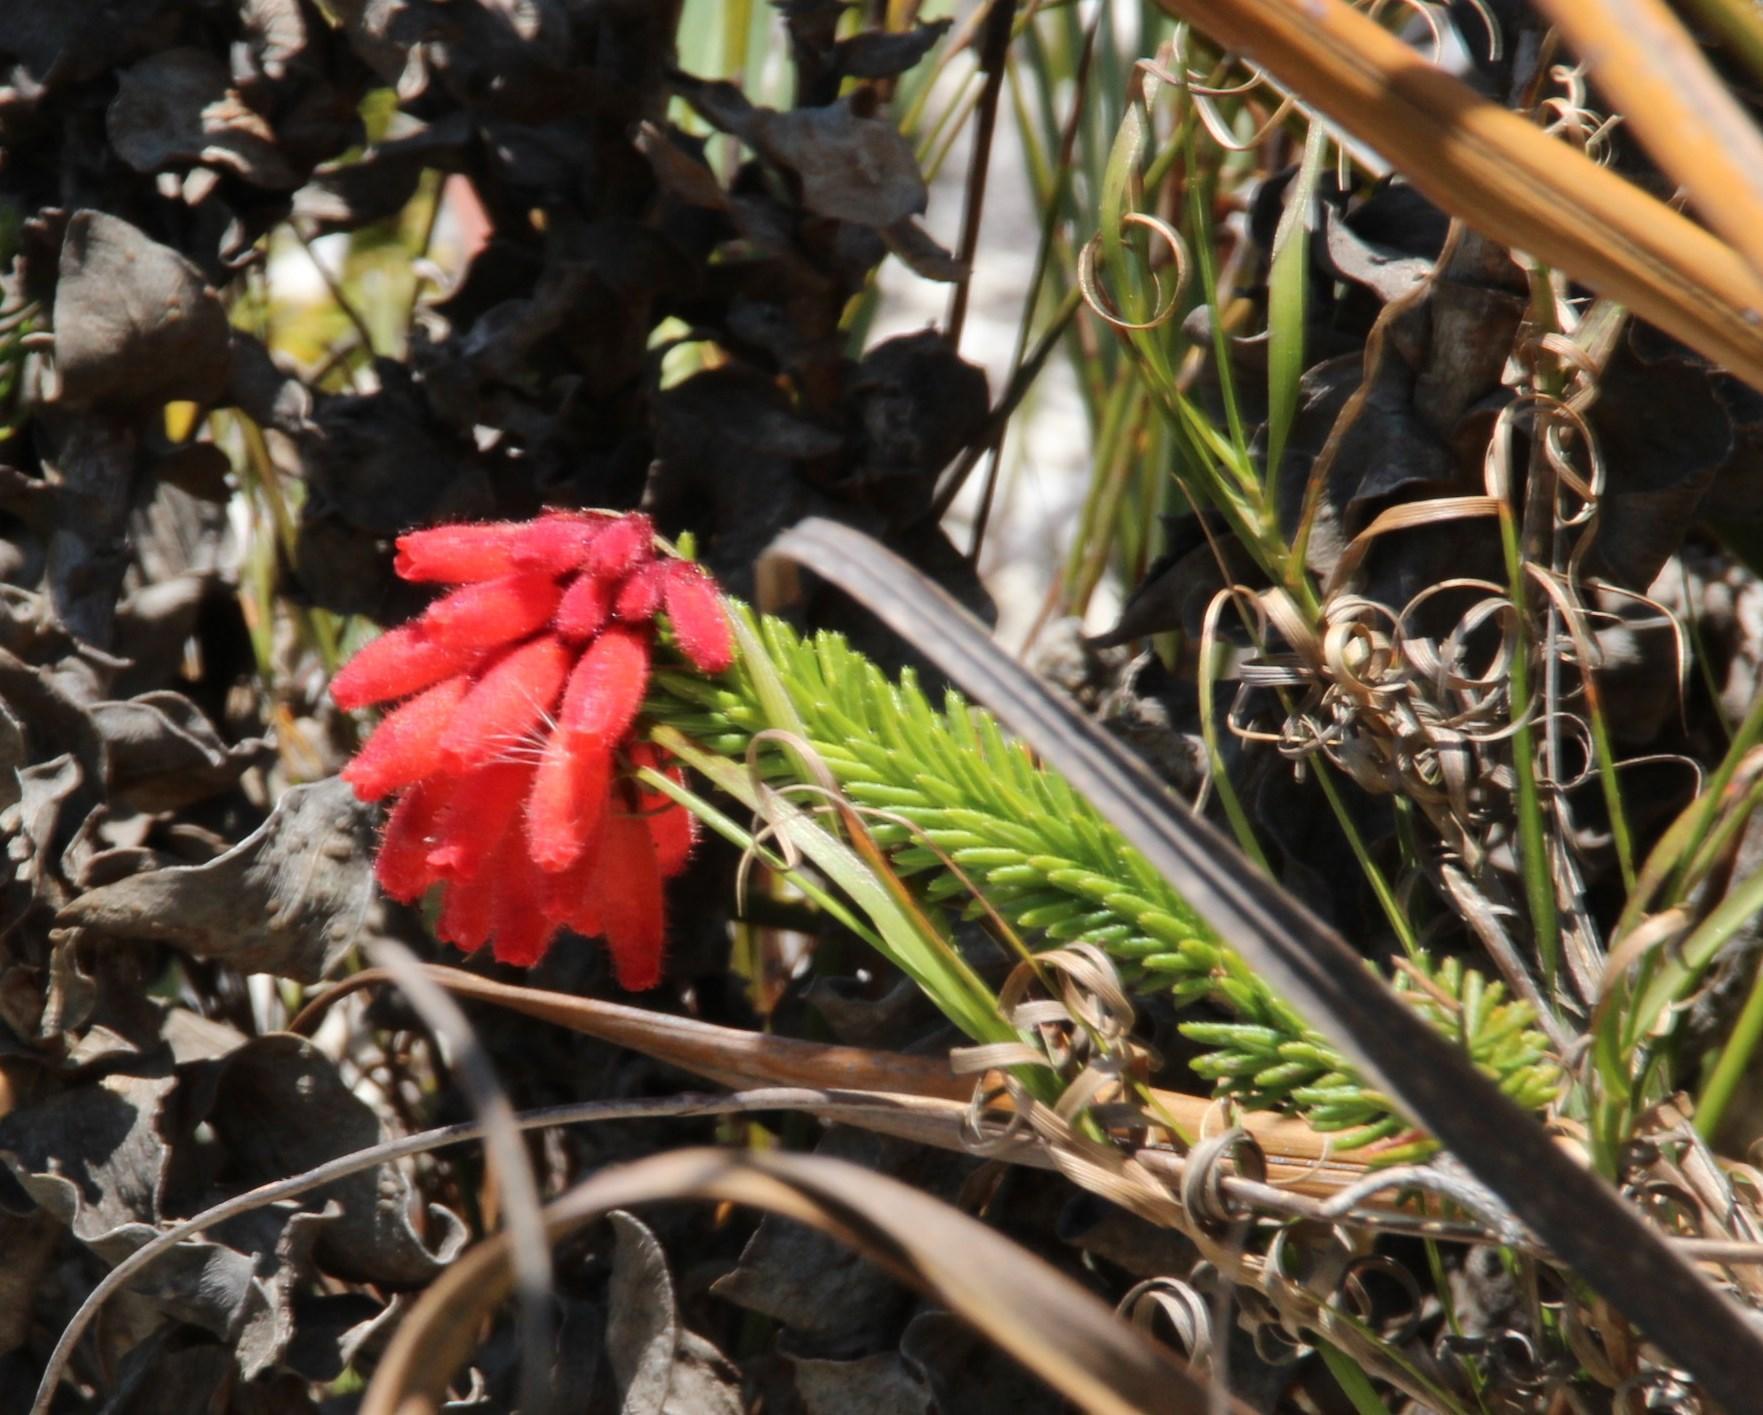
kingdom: Plantae
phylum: Tracheophyta
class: Magnoliopsida
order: Ericales
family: Ericaceae
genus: Erica
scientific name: Erica cerinthoides
